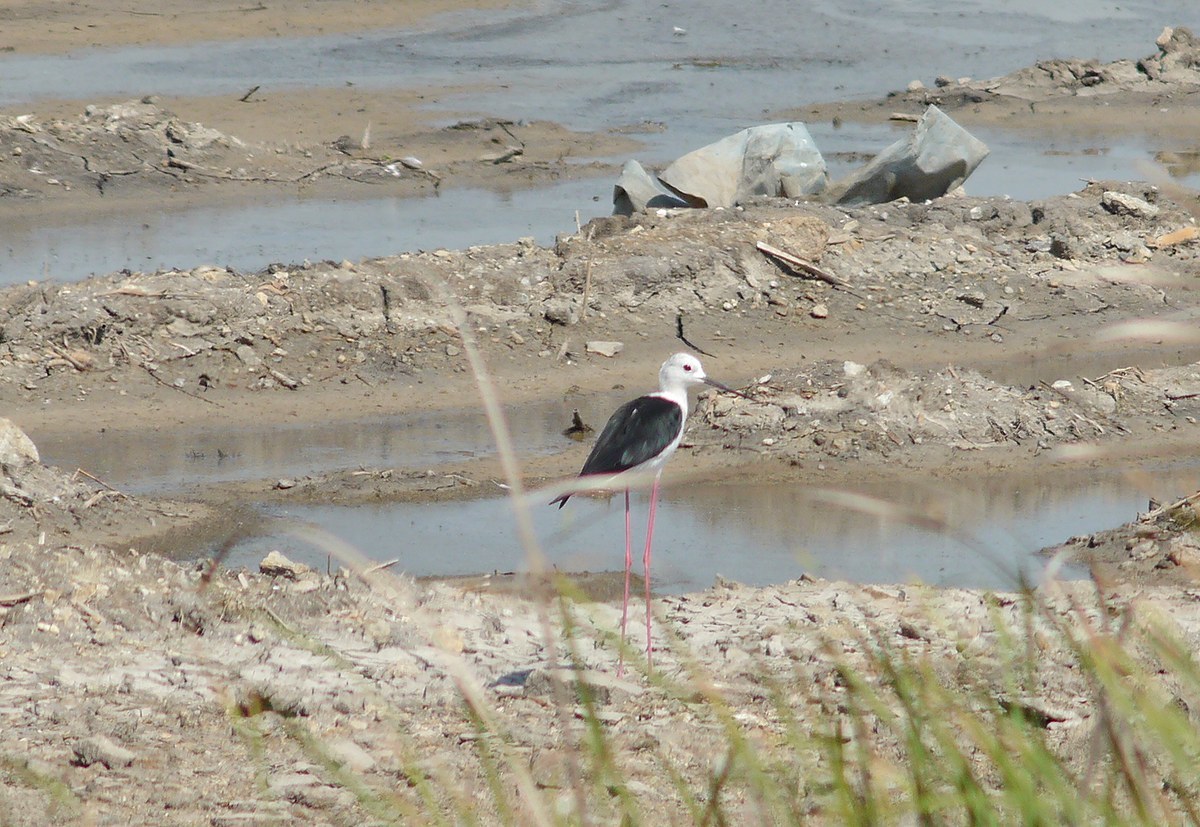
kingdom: Animalia
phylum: Chordata
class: Aves
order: Charadriiformes
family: Recurvirostridae
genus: Himantopus
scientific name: Himantopus himantopus
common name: Black-winged stilt
